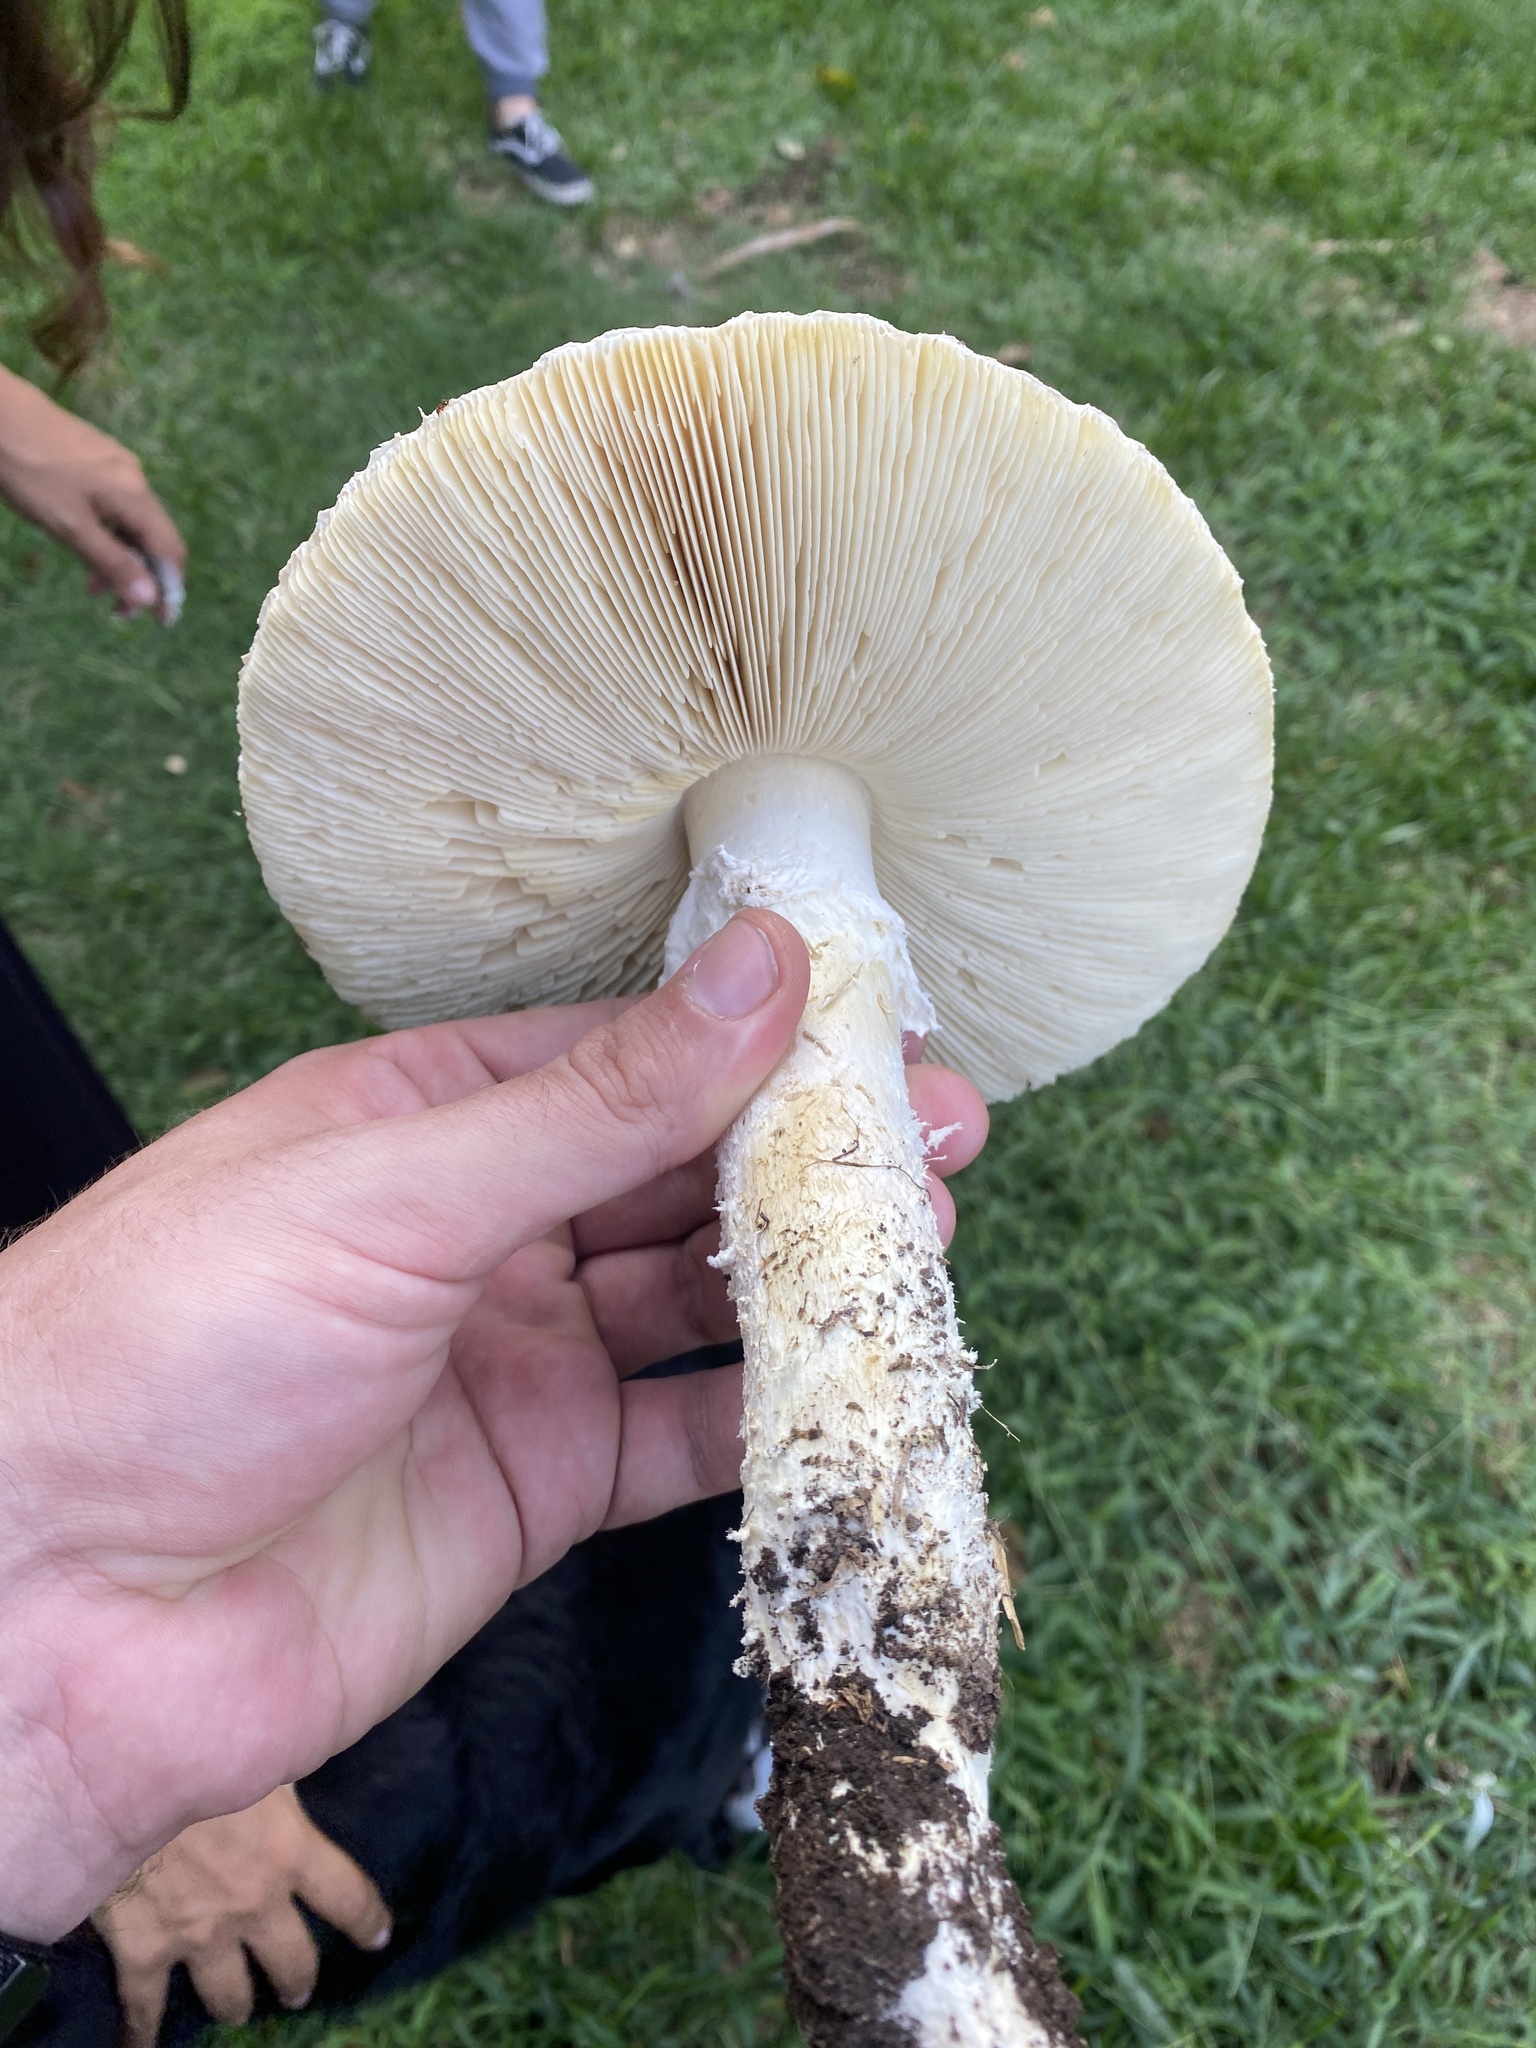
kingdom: Fungi
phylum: Basidiomycota
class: Agaricomycetes
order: Agaricales
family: Amanitaceae
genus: Aspidella
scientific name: Aspidella foetens
